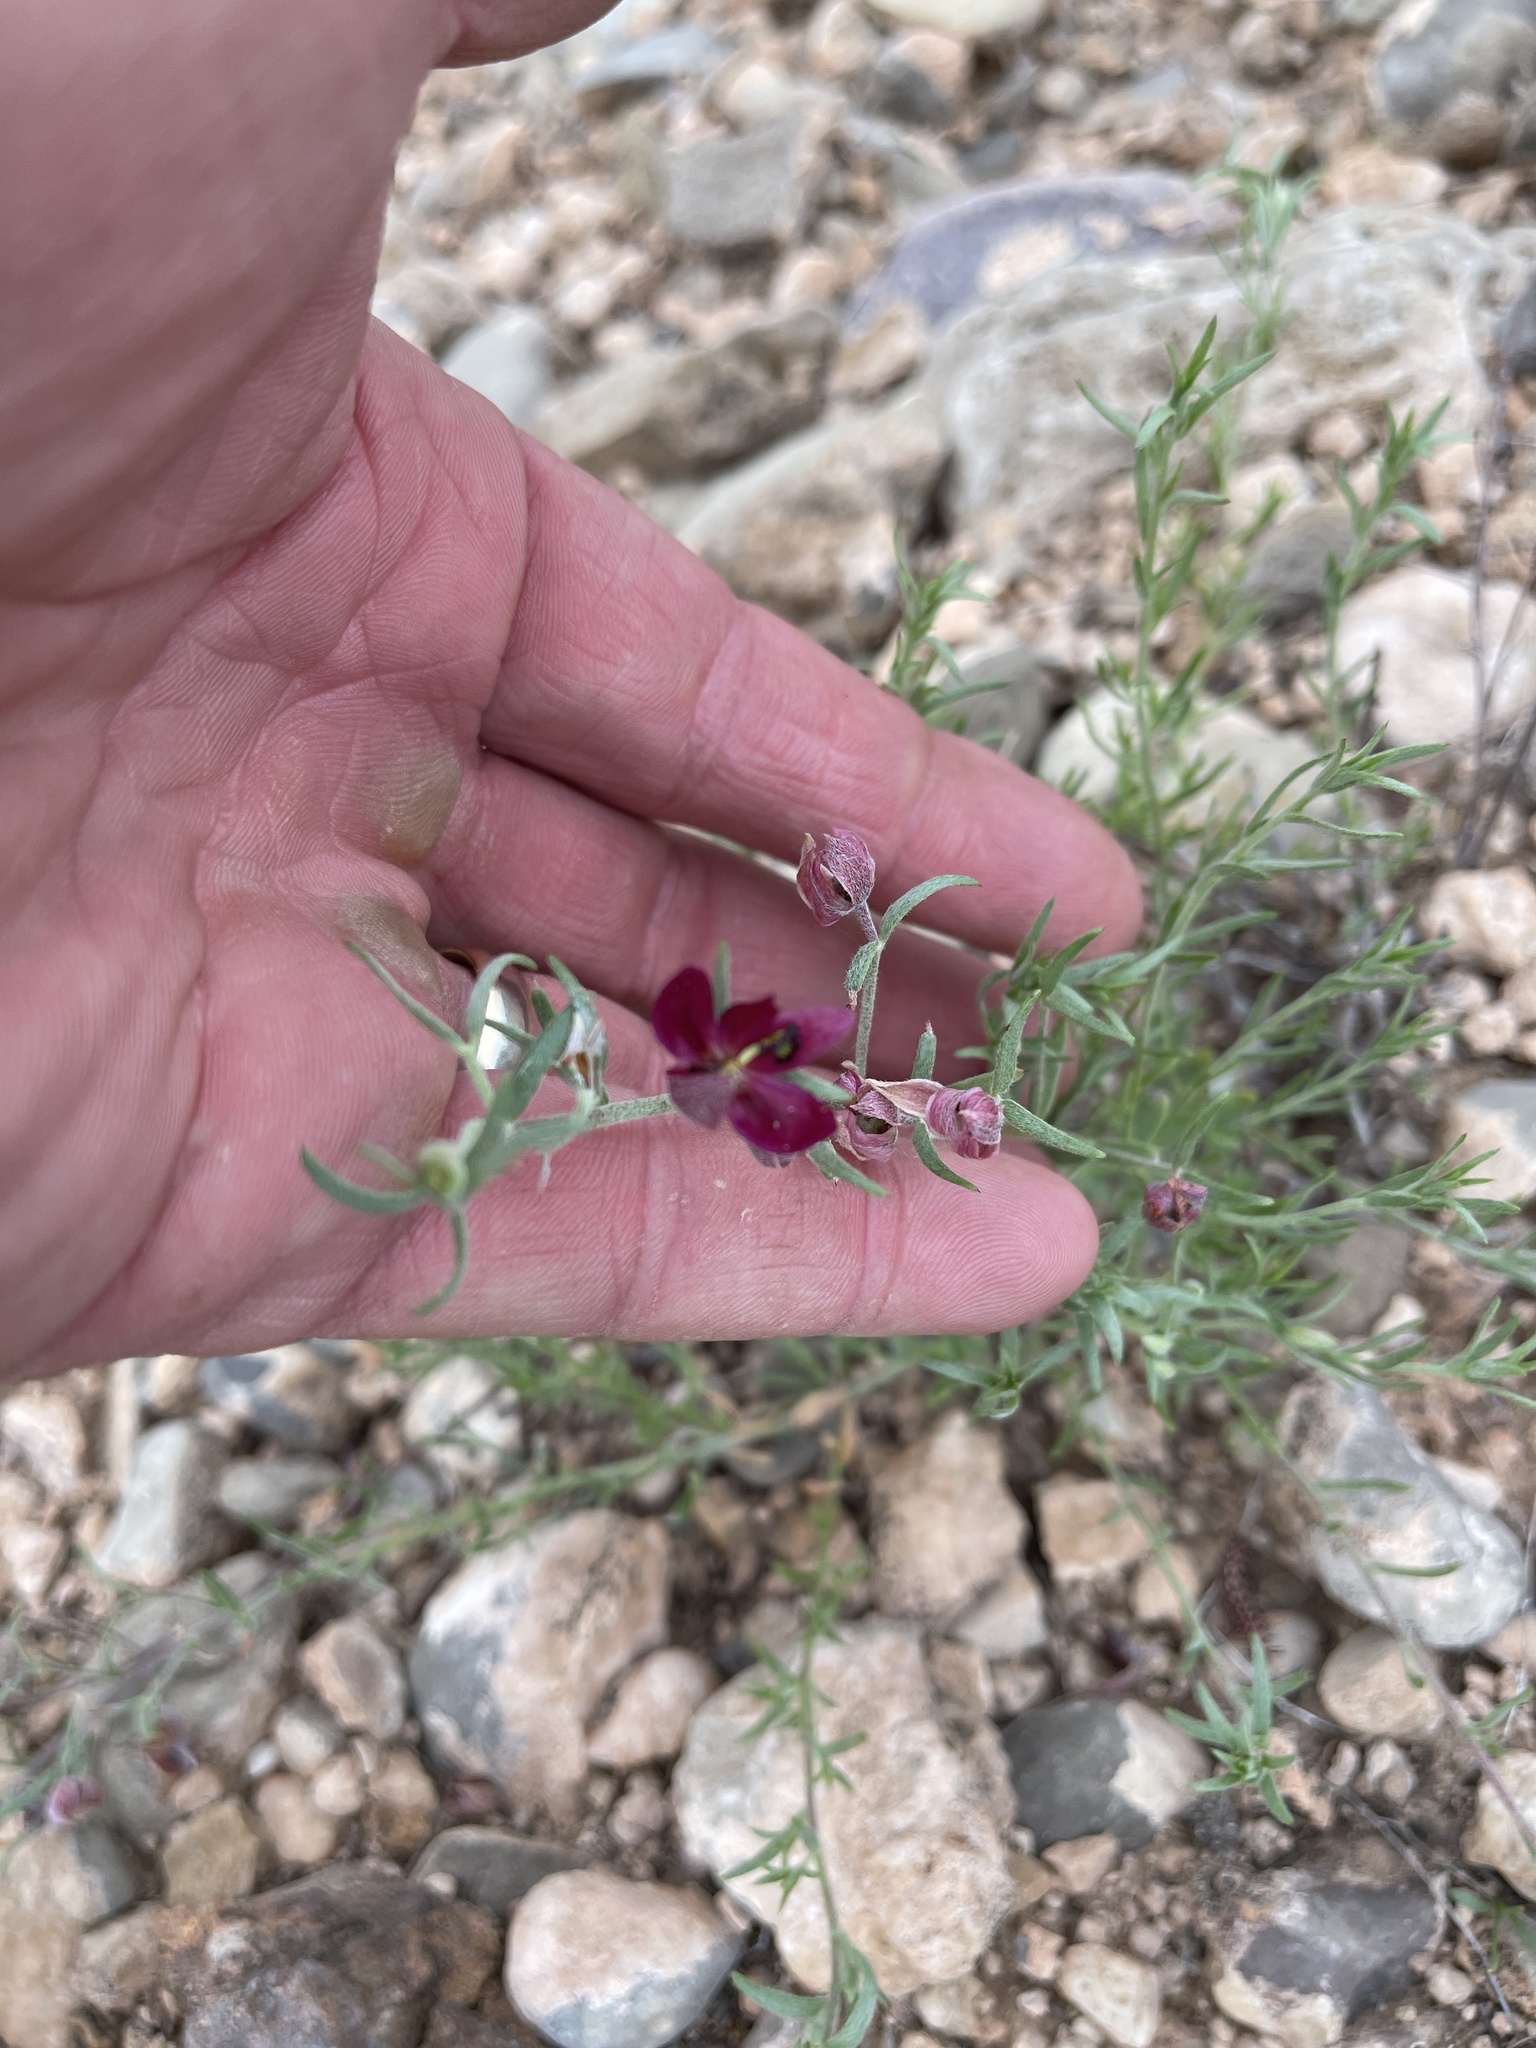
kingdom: Plantae
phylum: Tracheophyta
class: Magnoliopsida
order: Zygophyllales
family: Krameriaceae
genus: Krameria
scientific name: Krameria lanceolata
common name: Ratany
